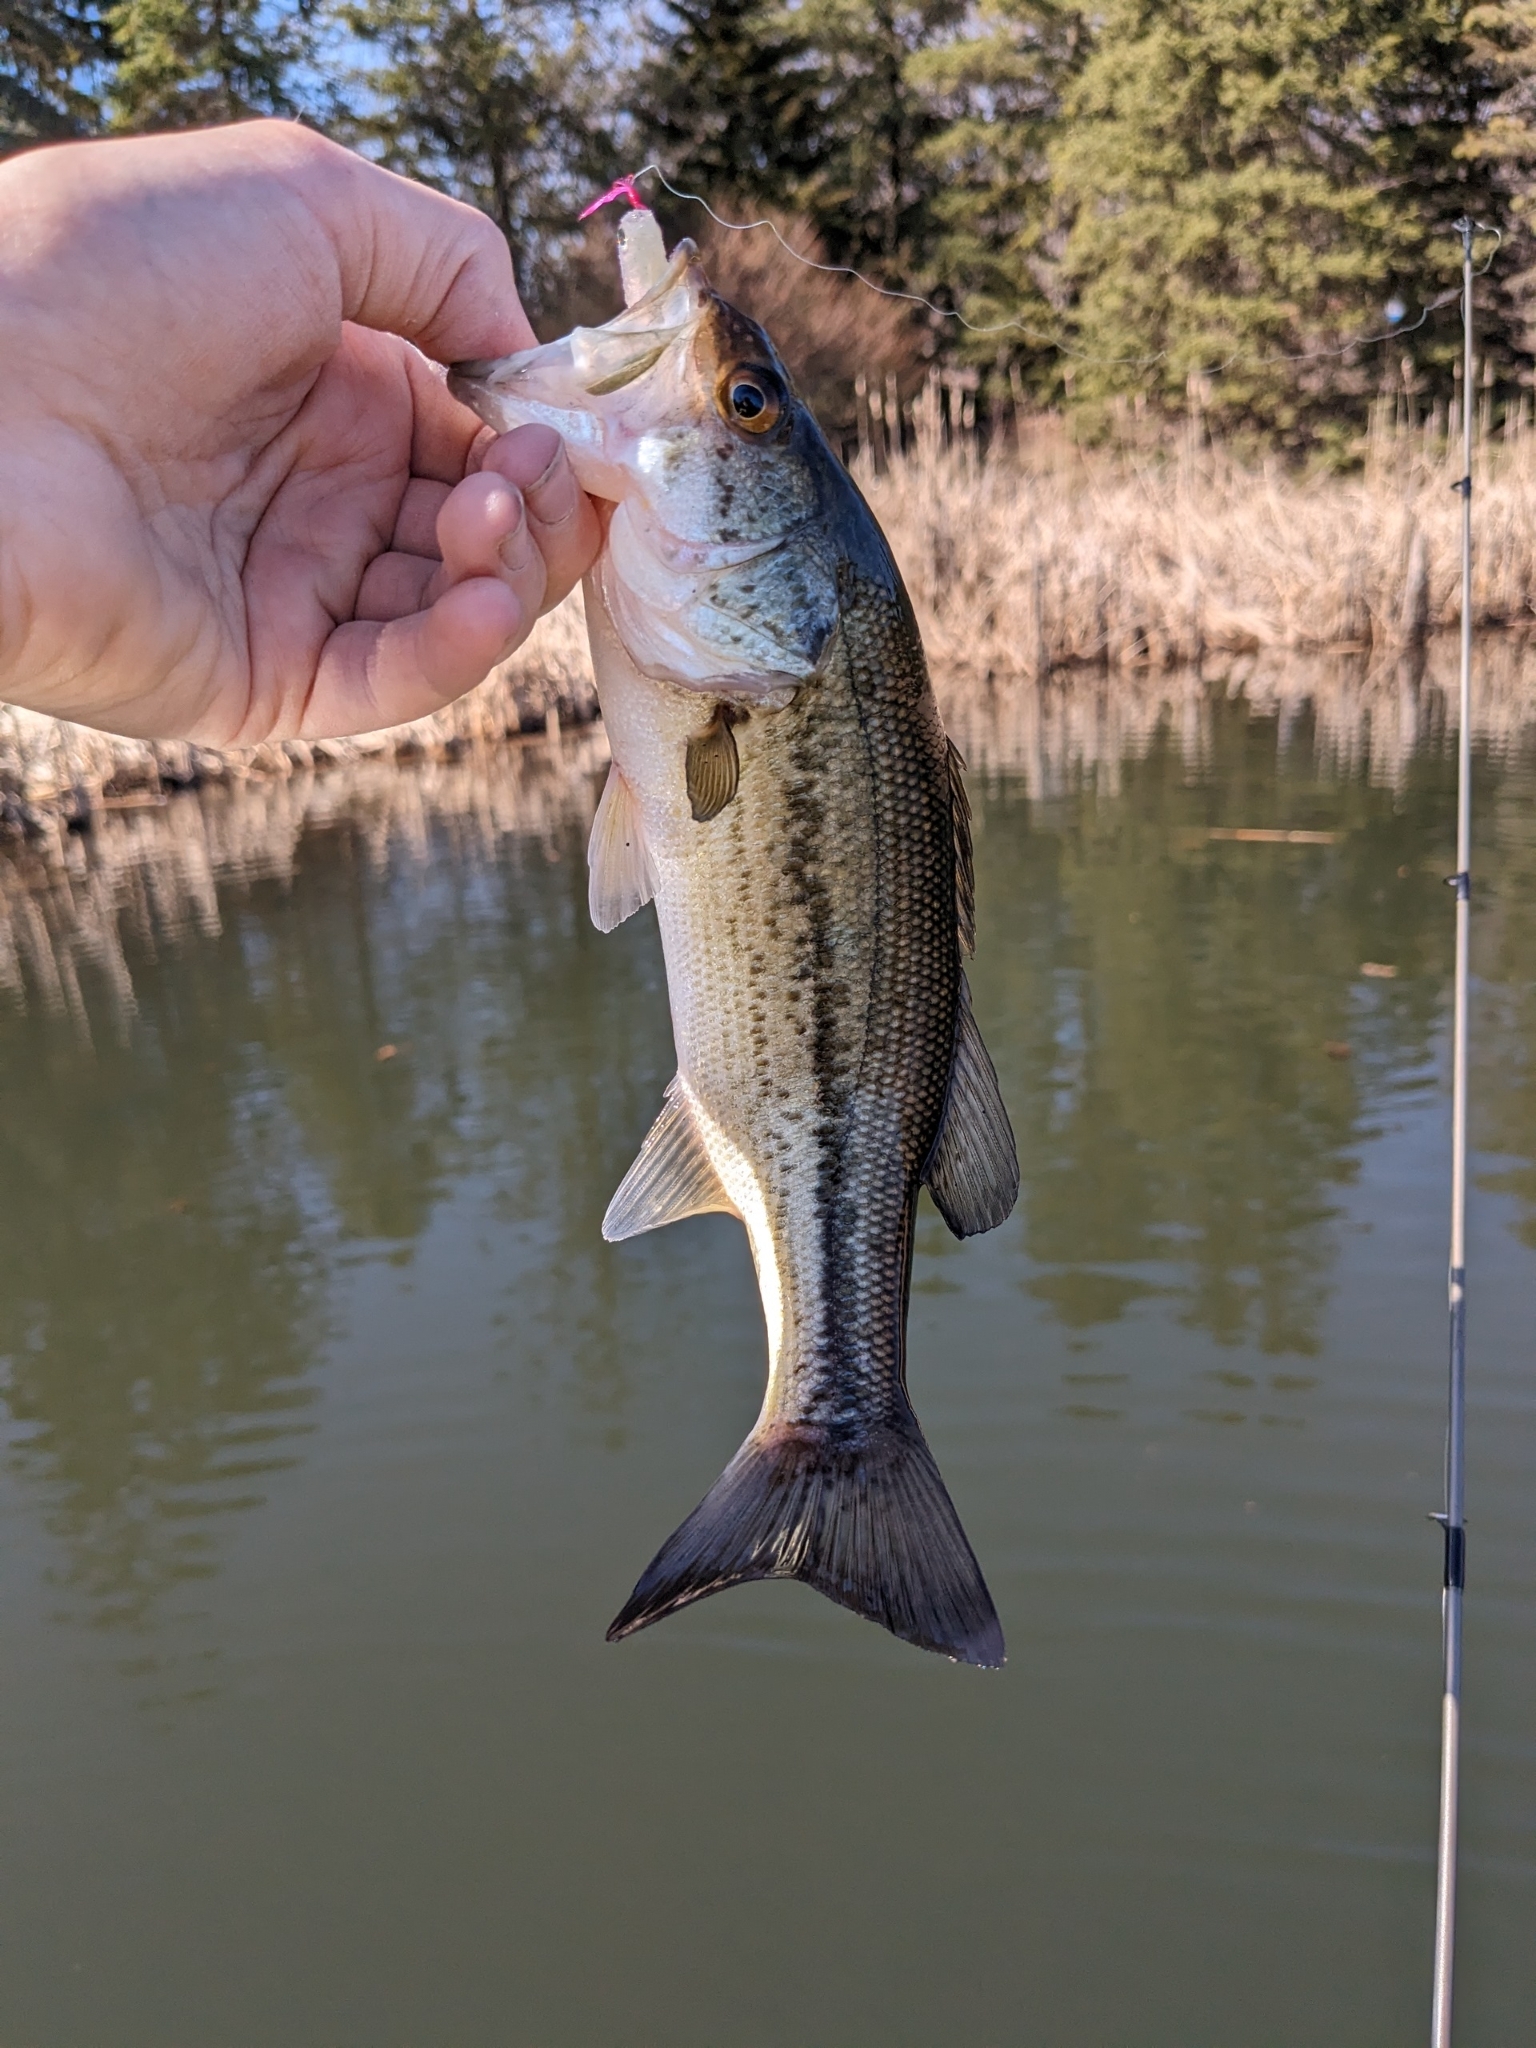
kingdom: Animalia
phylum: Chordata
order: Perciformes
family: Centrarchidae
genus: Micropterus
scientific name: Micropterus
